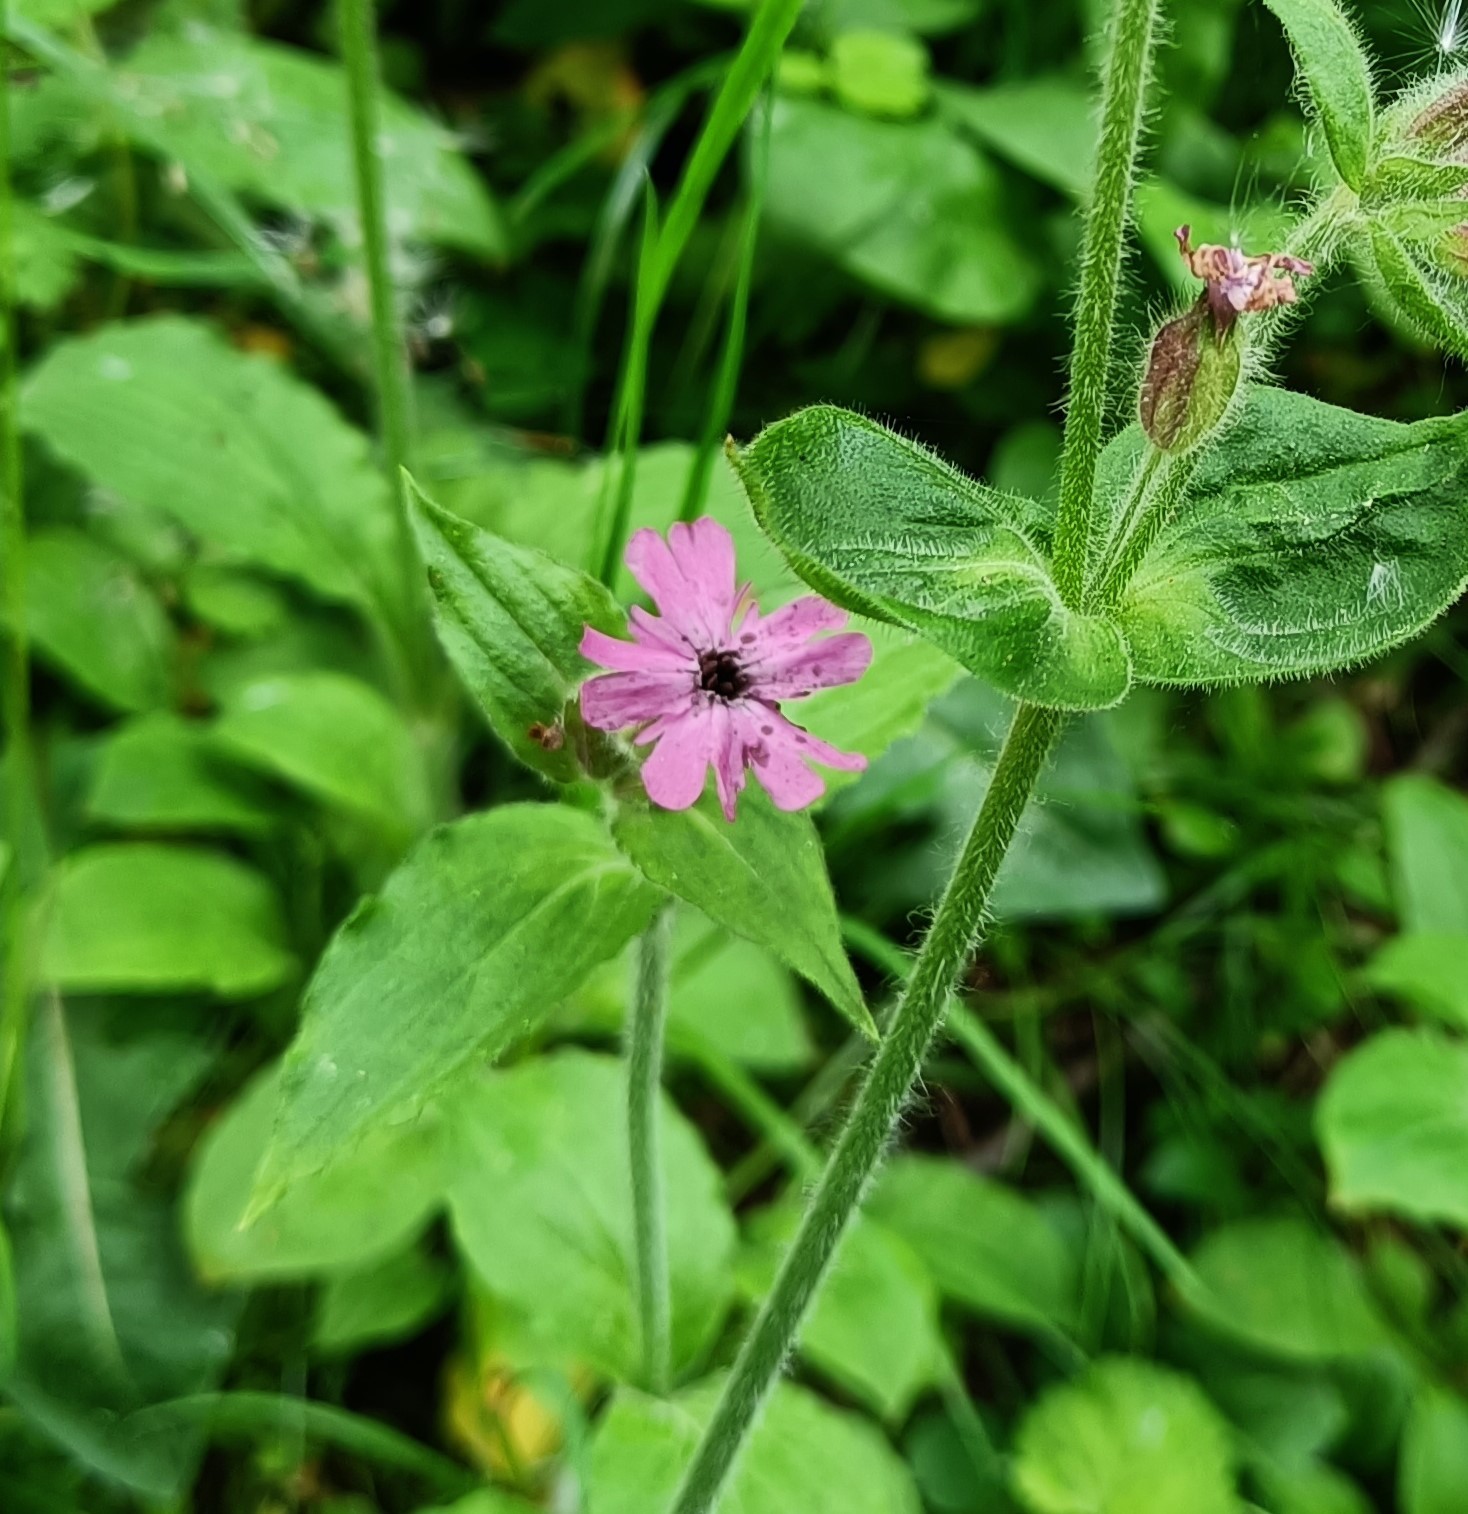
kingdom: Fungi
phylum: Basidiomycota
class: Microbotryomycetes
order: Microbotryales
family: Microbotryaceae
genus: Microbotryum
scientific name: Microbotryum silenes-dioicae
